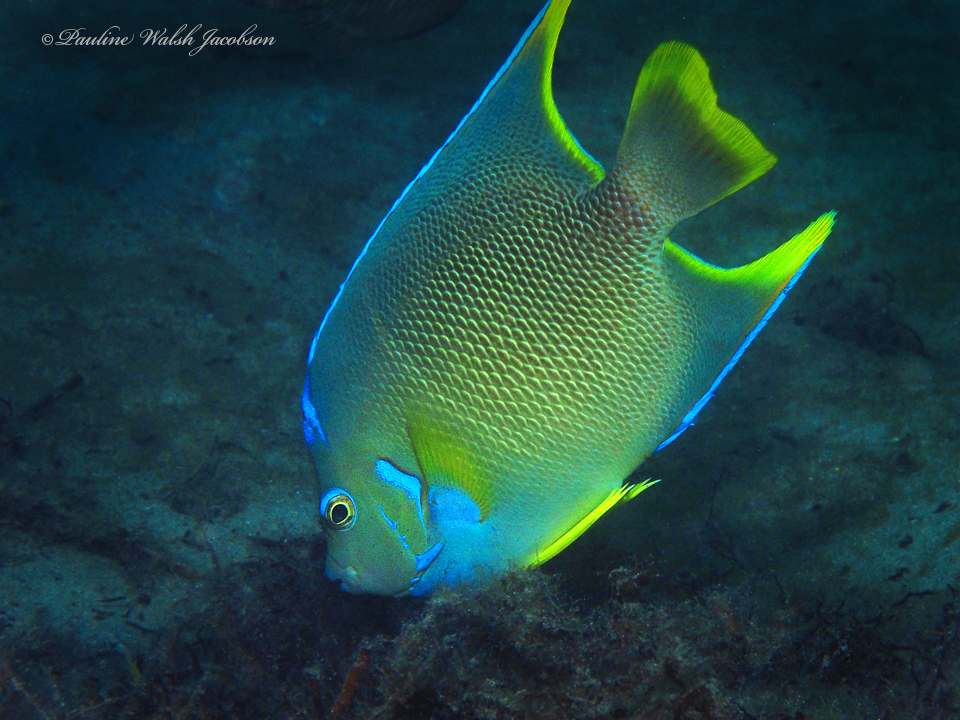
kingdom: Animalia
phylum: Chordata
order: Perciformes
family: Pomacanthidae
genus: Holacanthus
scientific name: Holacanthus ciliaris
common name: Queen angelfish
